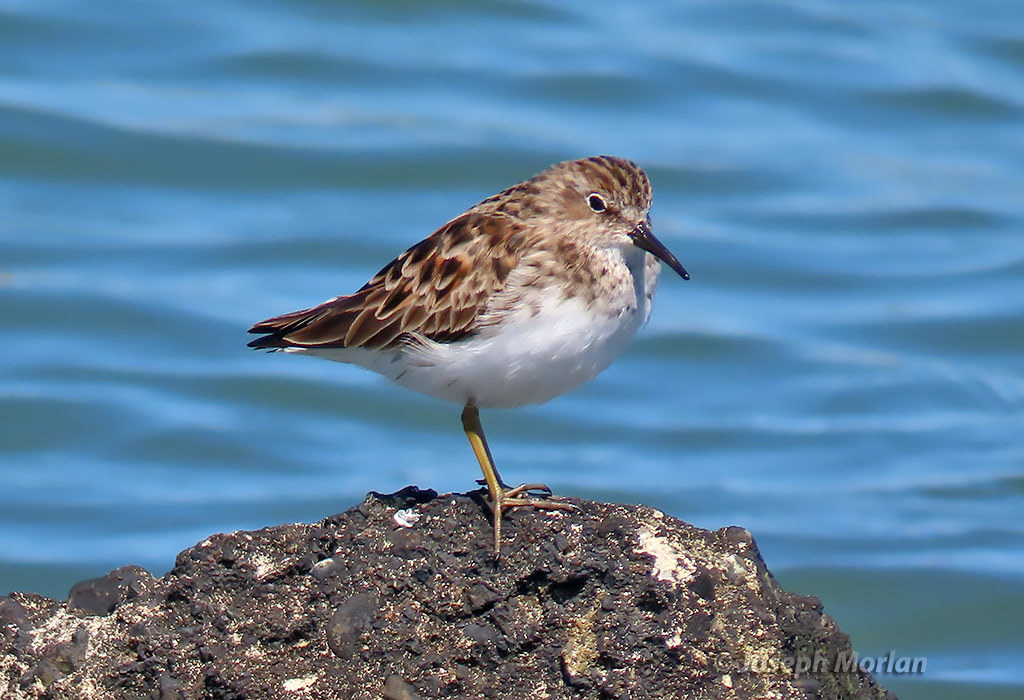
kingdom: Animalia
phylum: Chordata
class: Aves
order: Charadriiformes
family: Scolopacidae
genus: Calidris
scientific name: Calidris minutilla
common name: Least sandpiper
